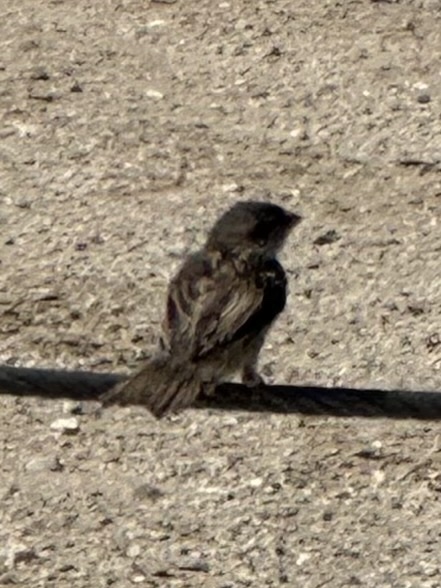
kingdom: Animalia
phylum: Chordata
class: Aves
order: Passeriformes
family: Passeridae
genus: Passer
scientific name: Passer domesticus
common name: House sparrow
